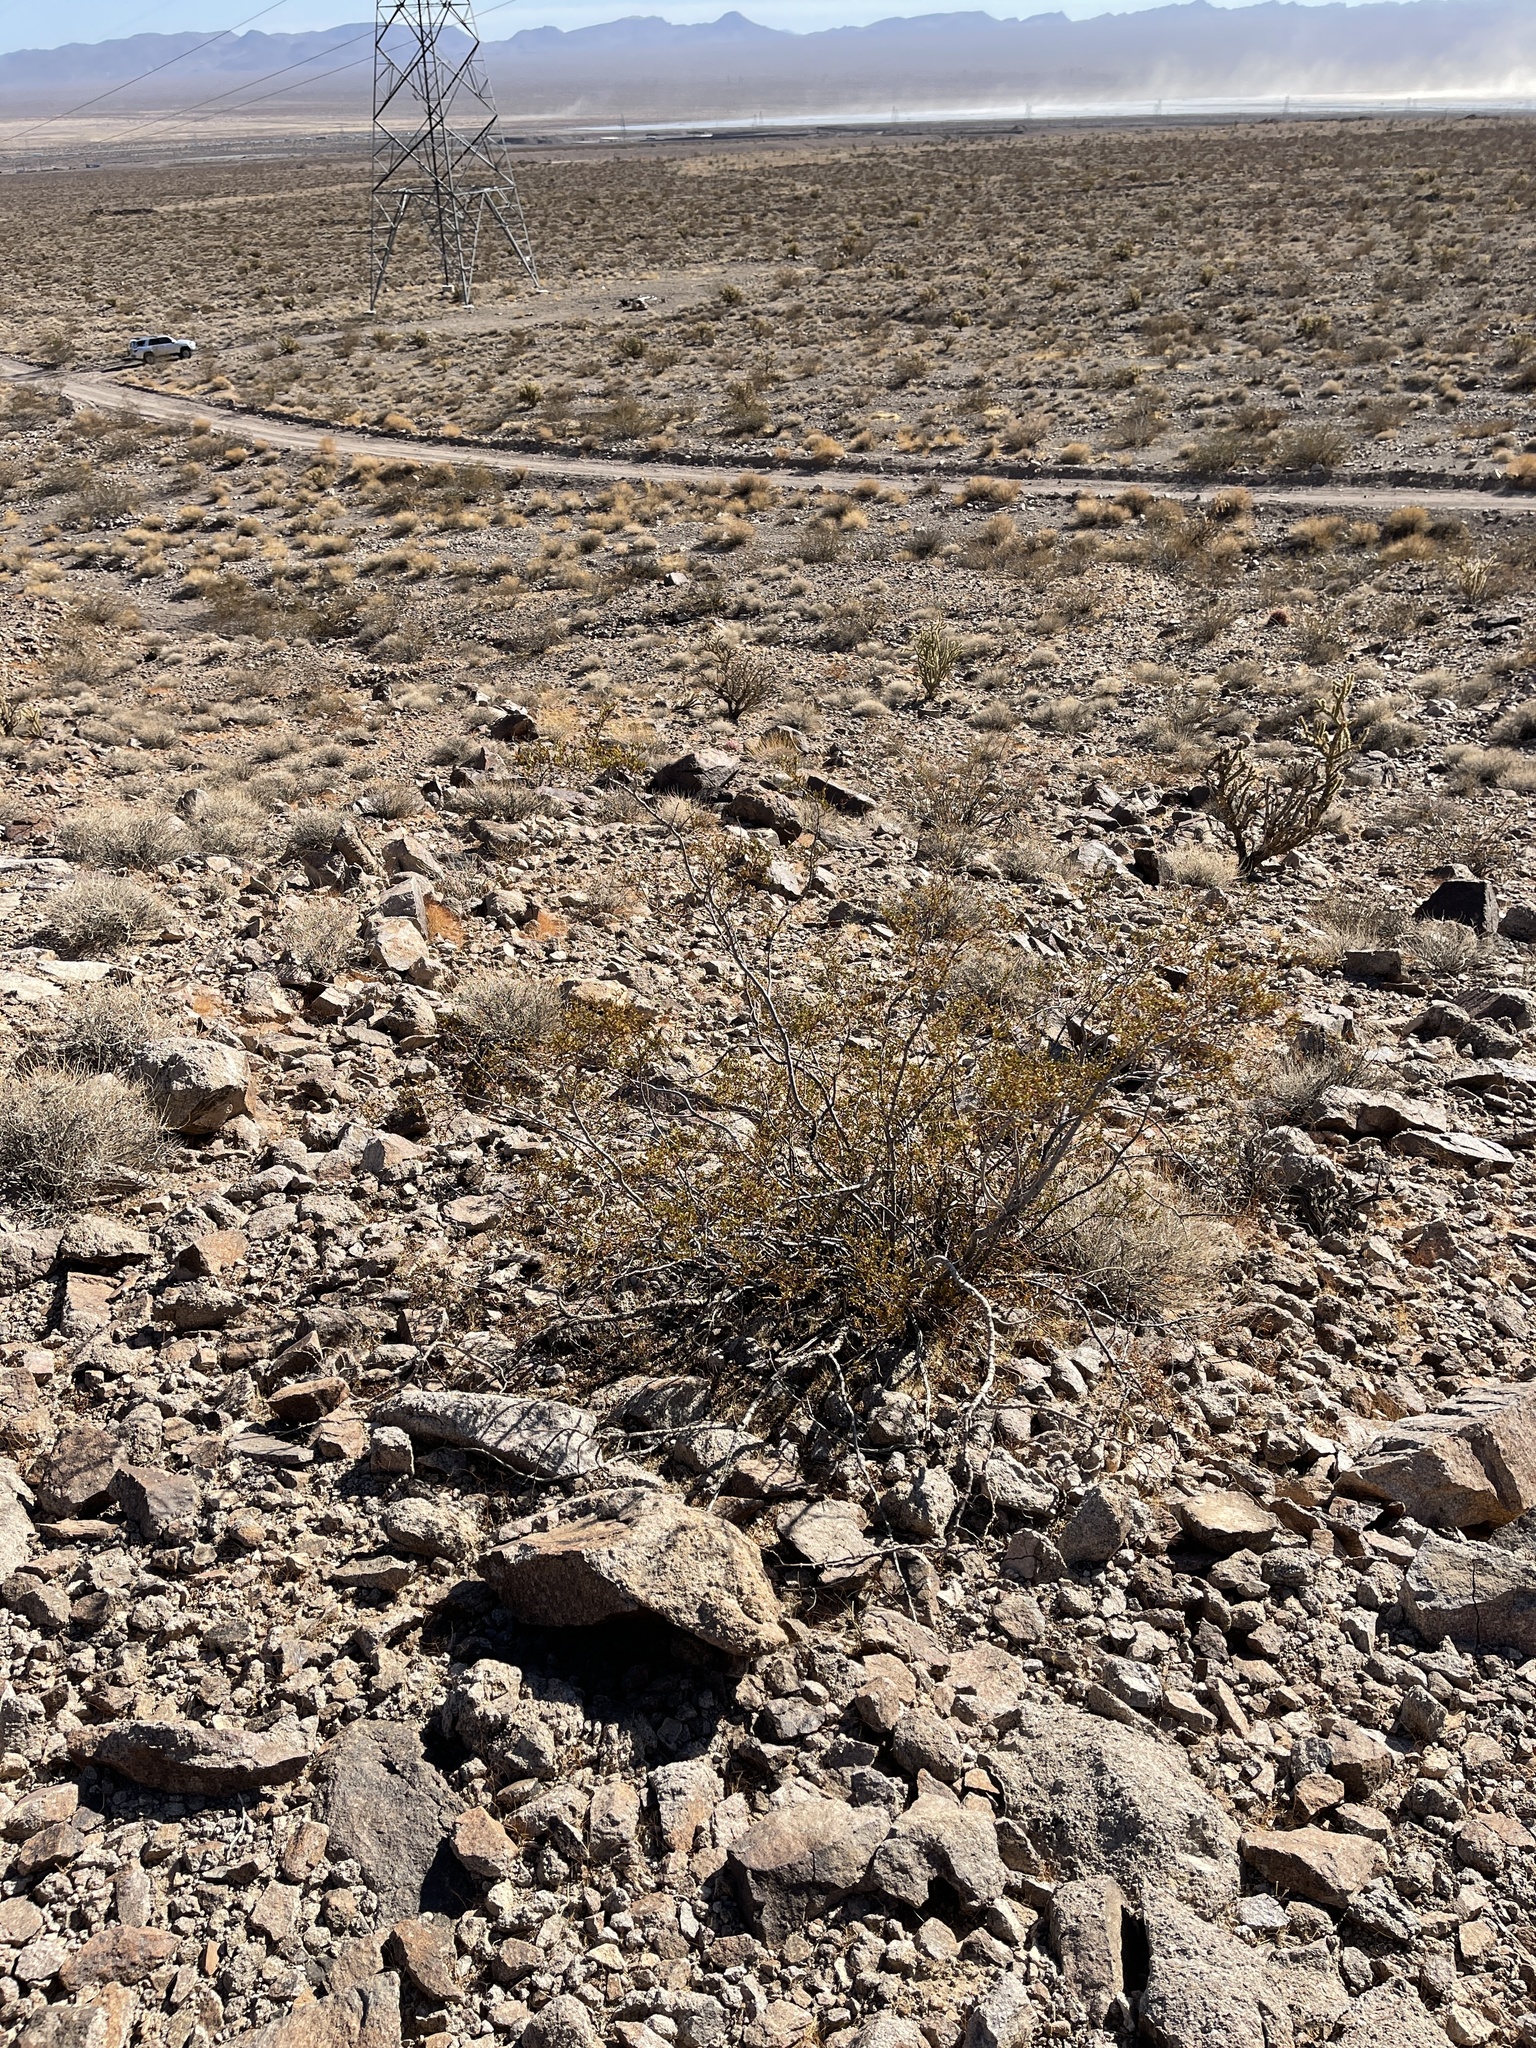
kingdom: Plantae
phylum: Tracheophyta
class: Magnoliopsida
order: Zygophyllales
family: Zygophyllaceae
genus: Larrea
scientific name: Larrea tridentata
